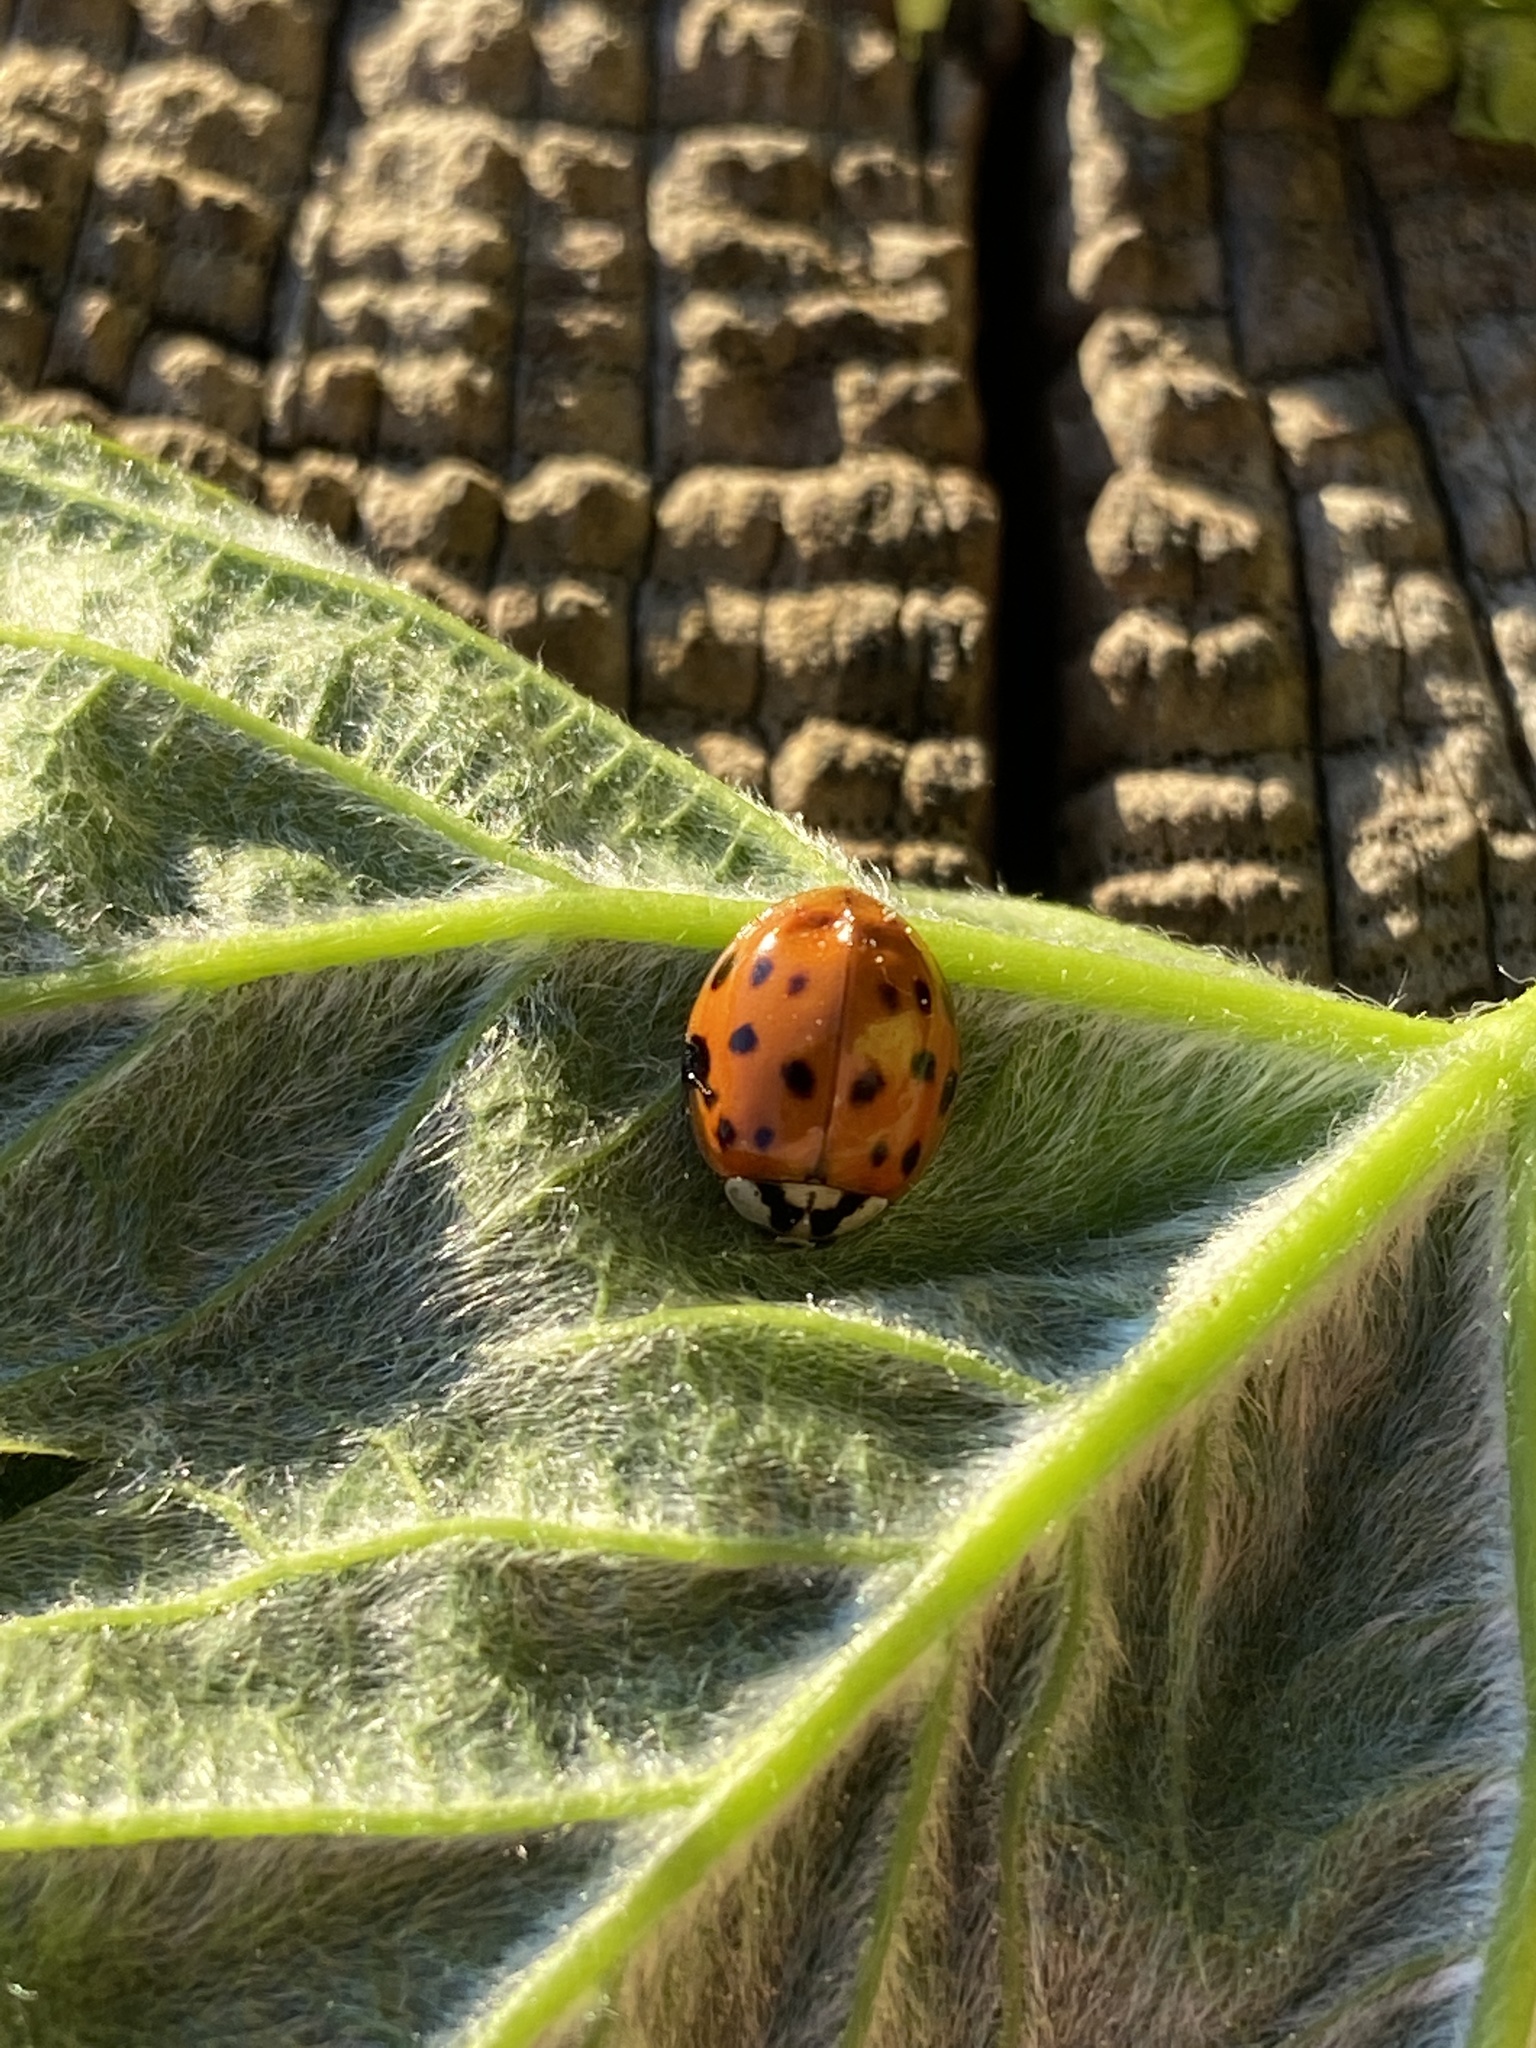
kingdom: Animalia
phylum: Arthropoda
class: Insecta
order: Coleoptera
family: Coccinellidae
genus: Harmonia
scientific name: Harmonia axyridis
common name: Harlequin ladybird
